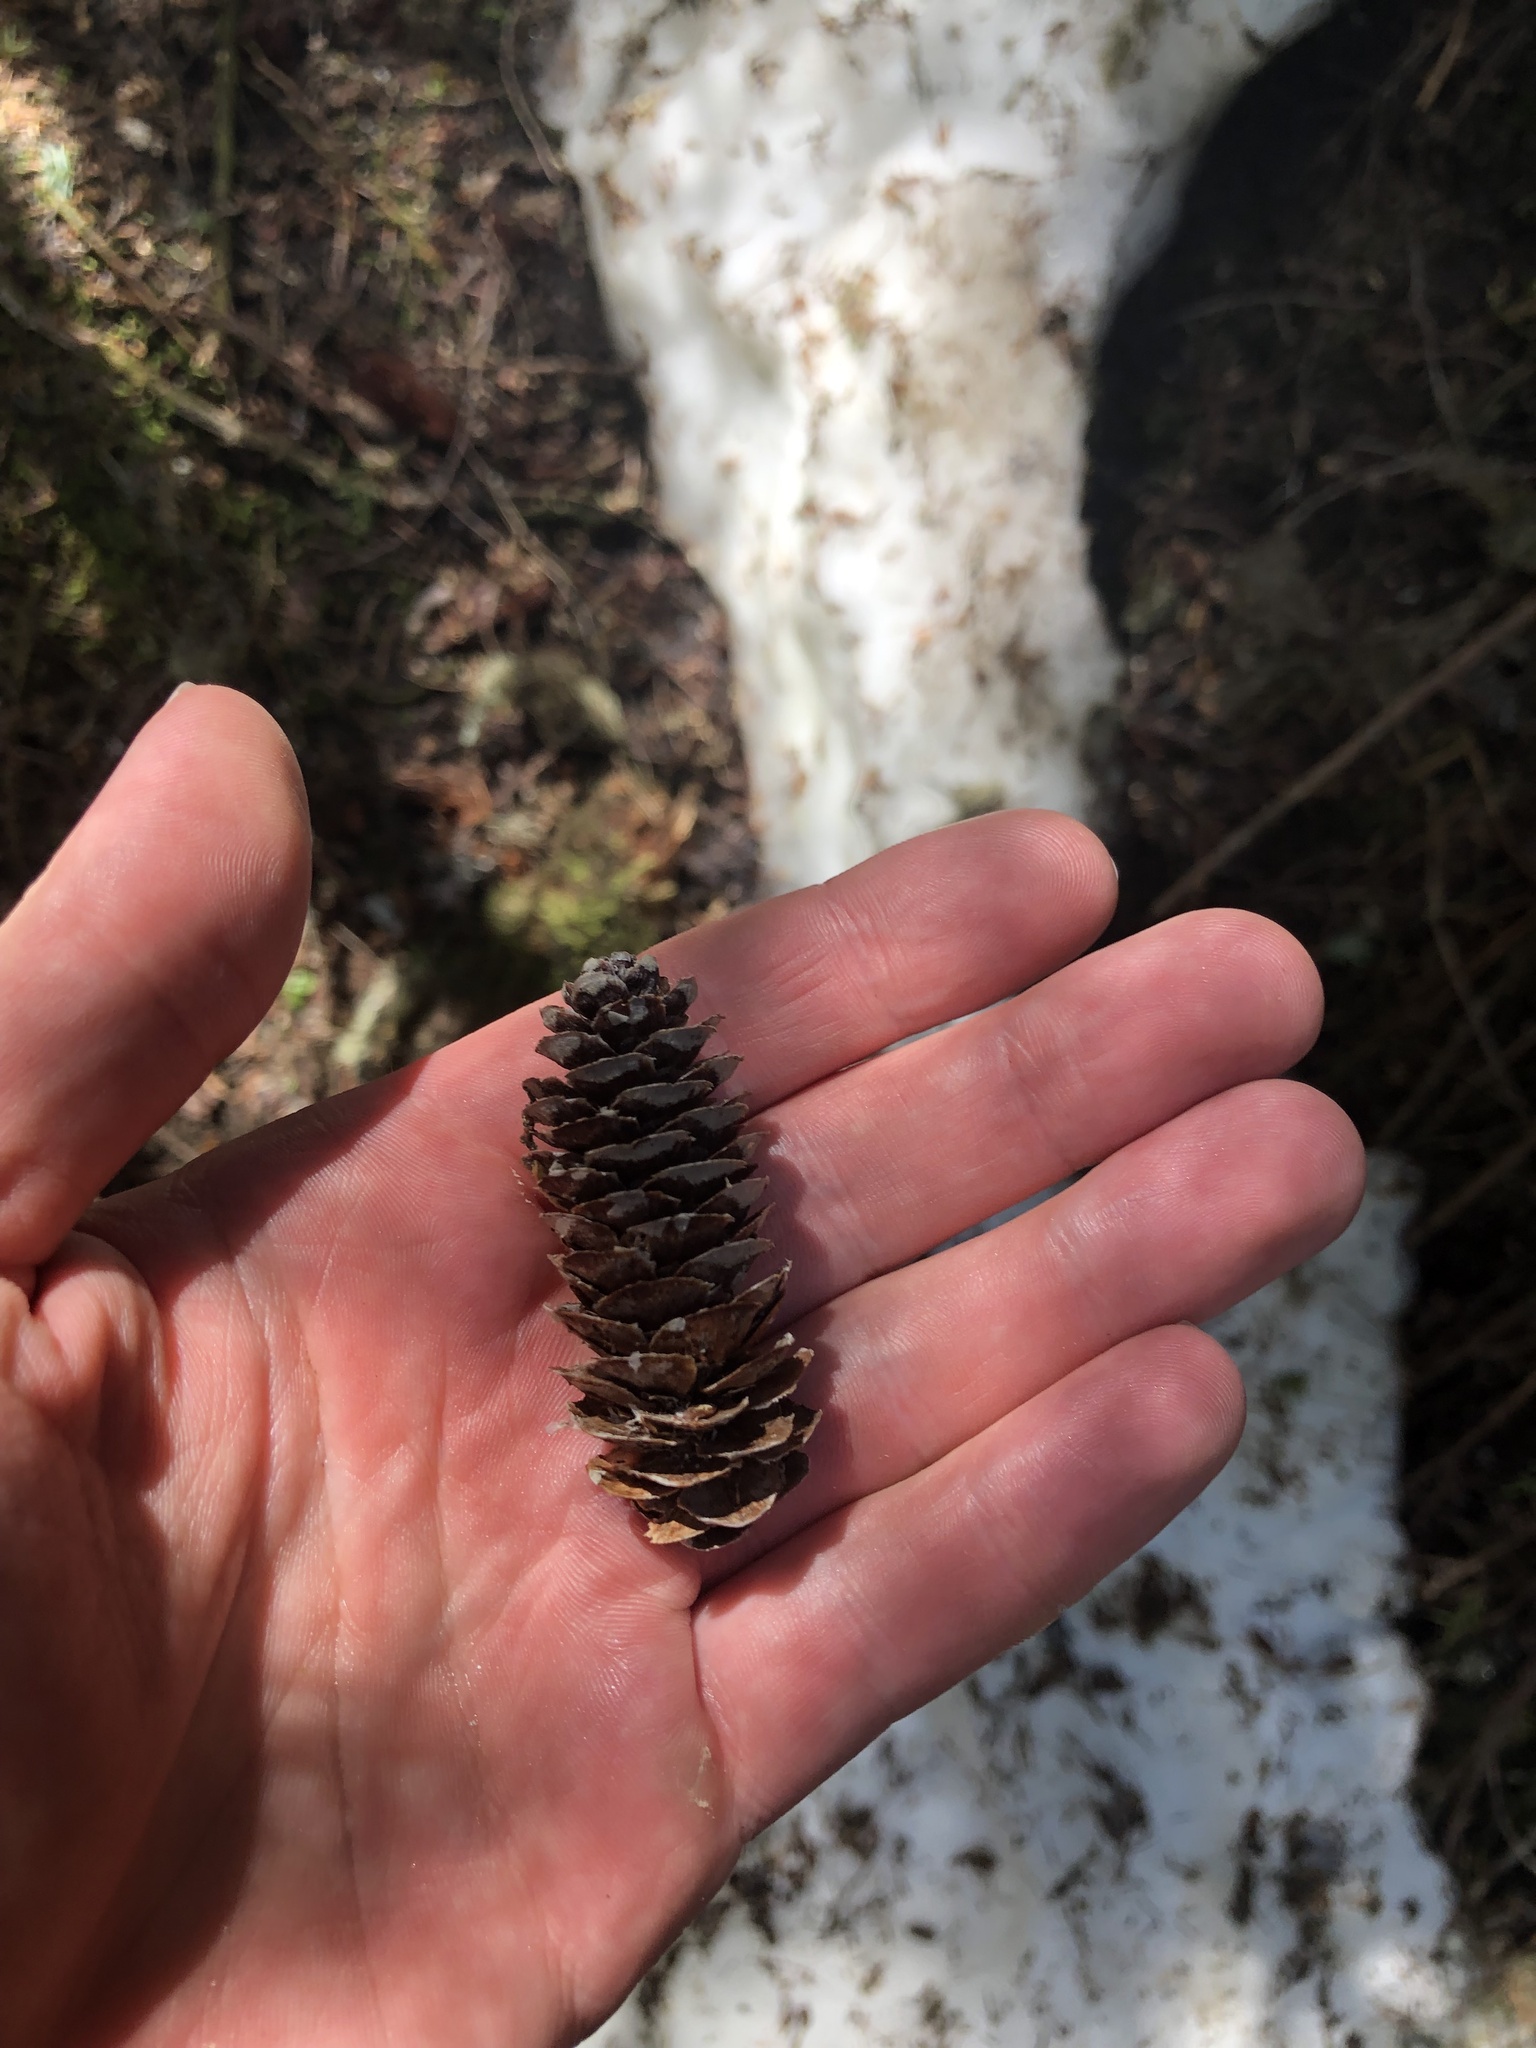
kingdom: Plantae
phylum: Tracheophyta
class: Pinopsida
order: Pinales
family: Pinaceae
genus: Tsuga
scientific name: Tsuga mertensiana
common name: Mountain hemlock
